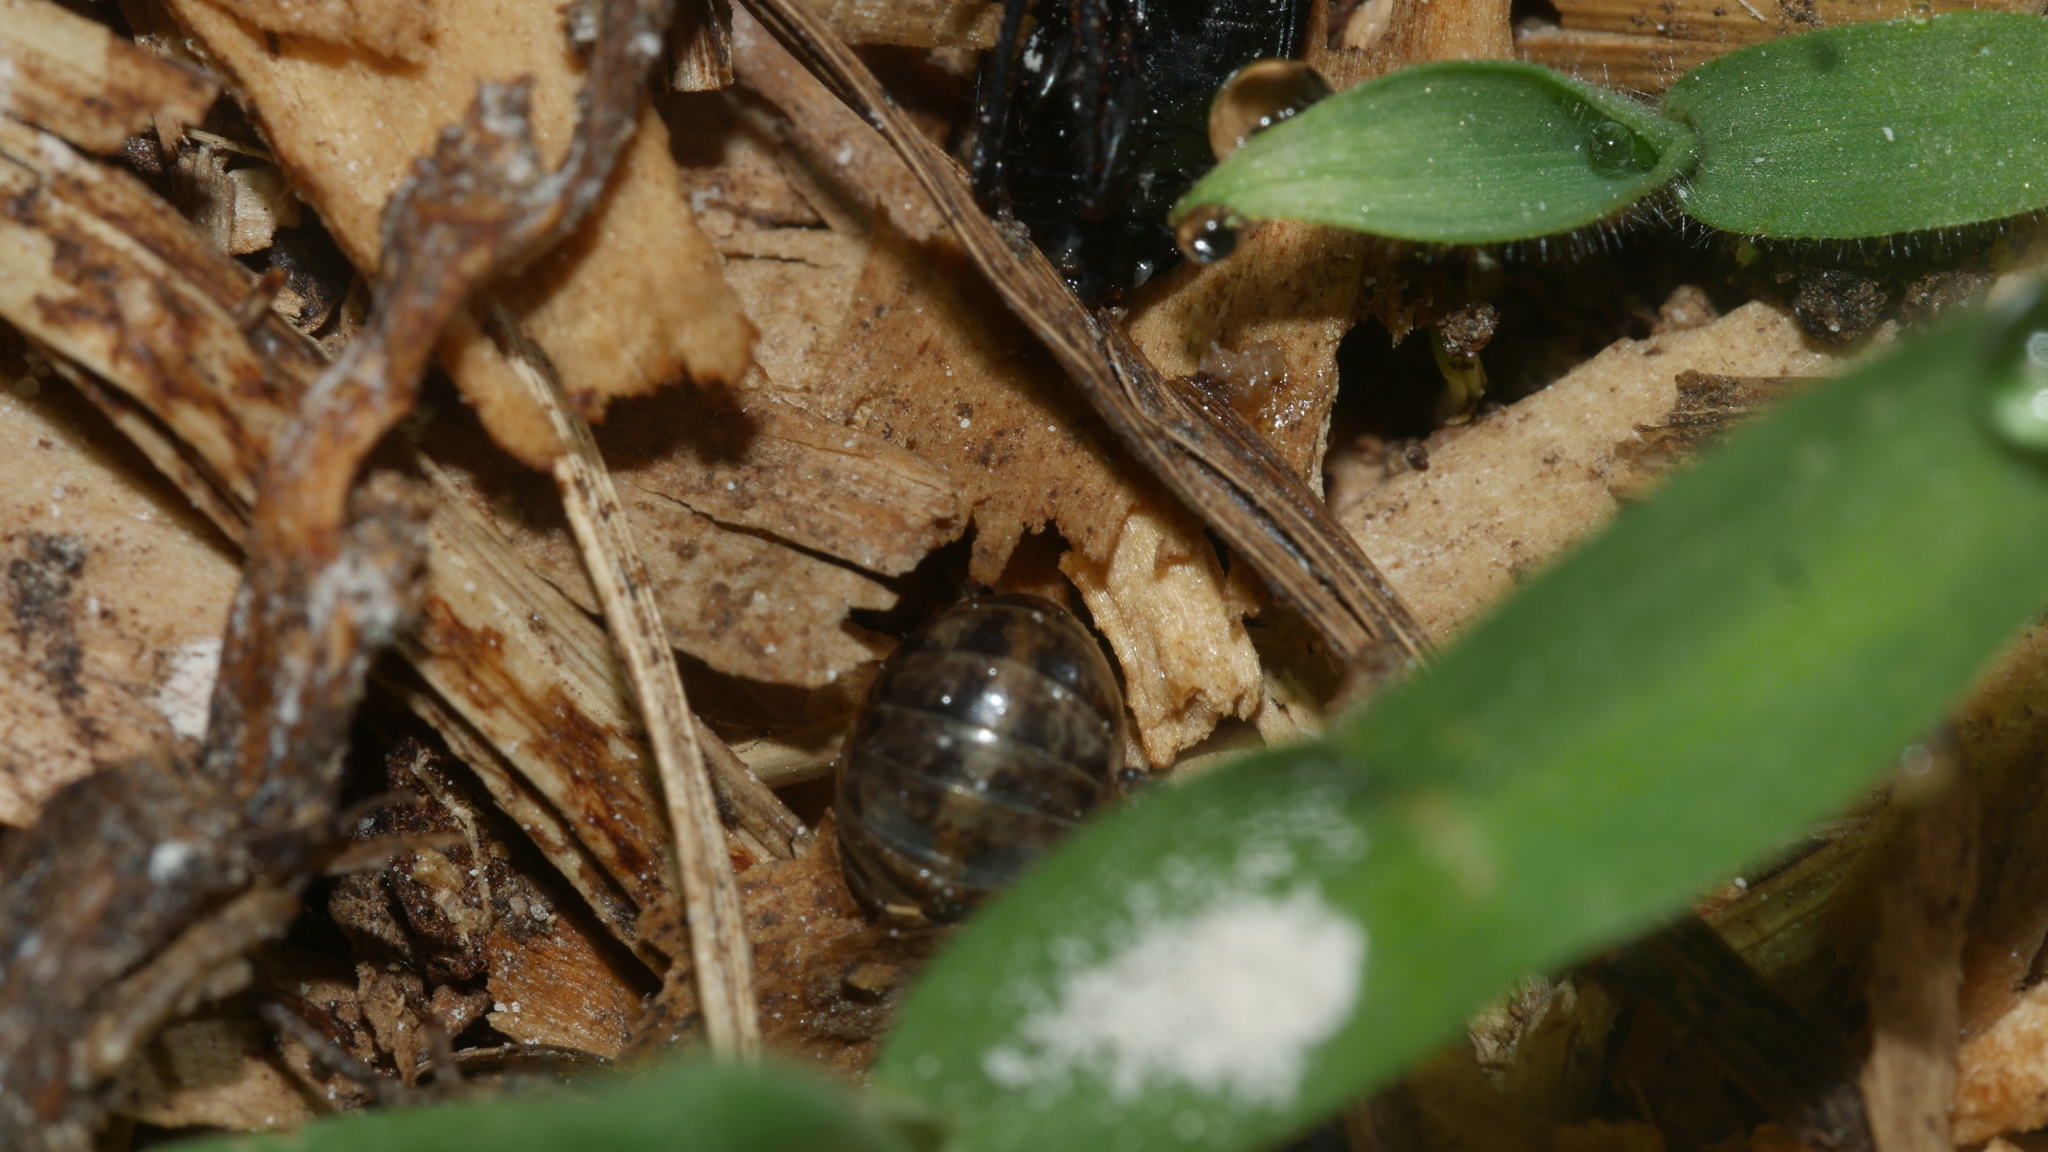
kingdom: Animalia
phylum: Arthropoda
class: Malacostraca
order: Isopoda
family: Armadillidiidae
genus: Armadillidium
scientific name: Armadillidium vulgare
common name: Common pill woodlouse
